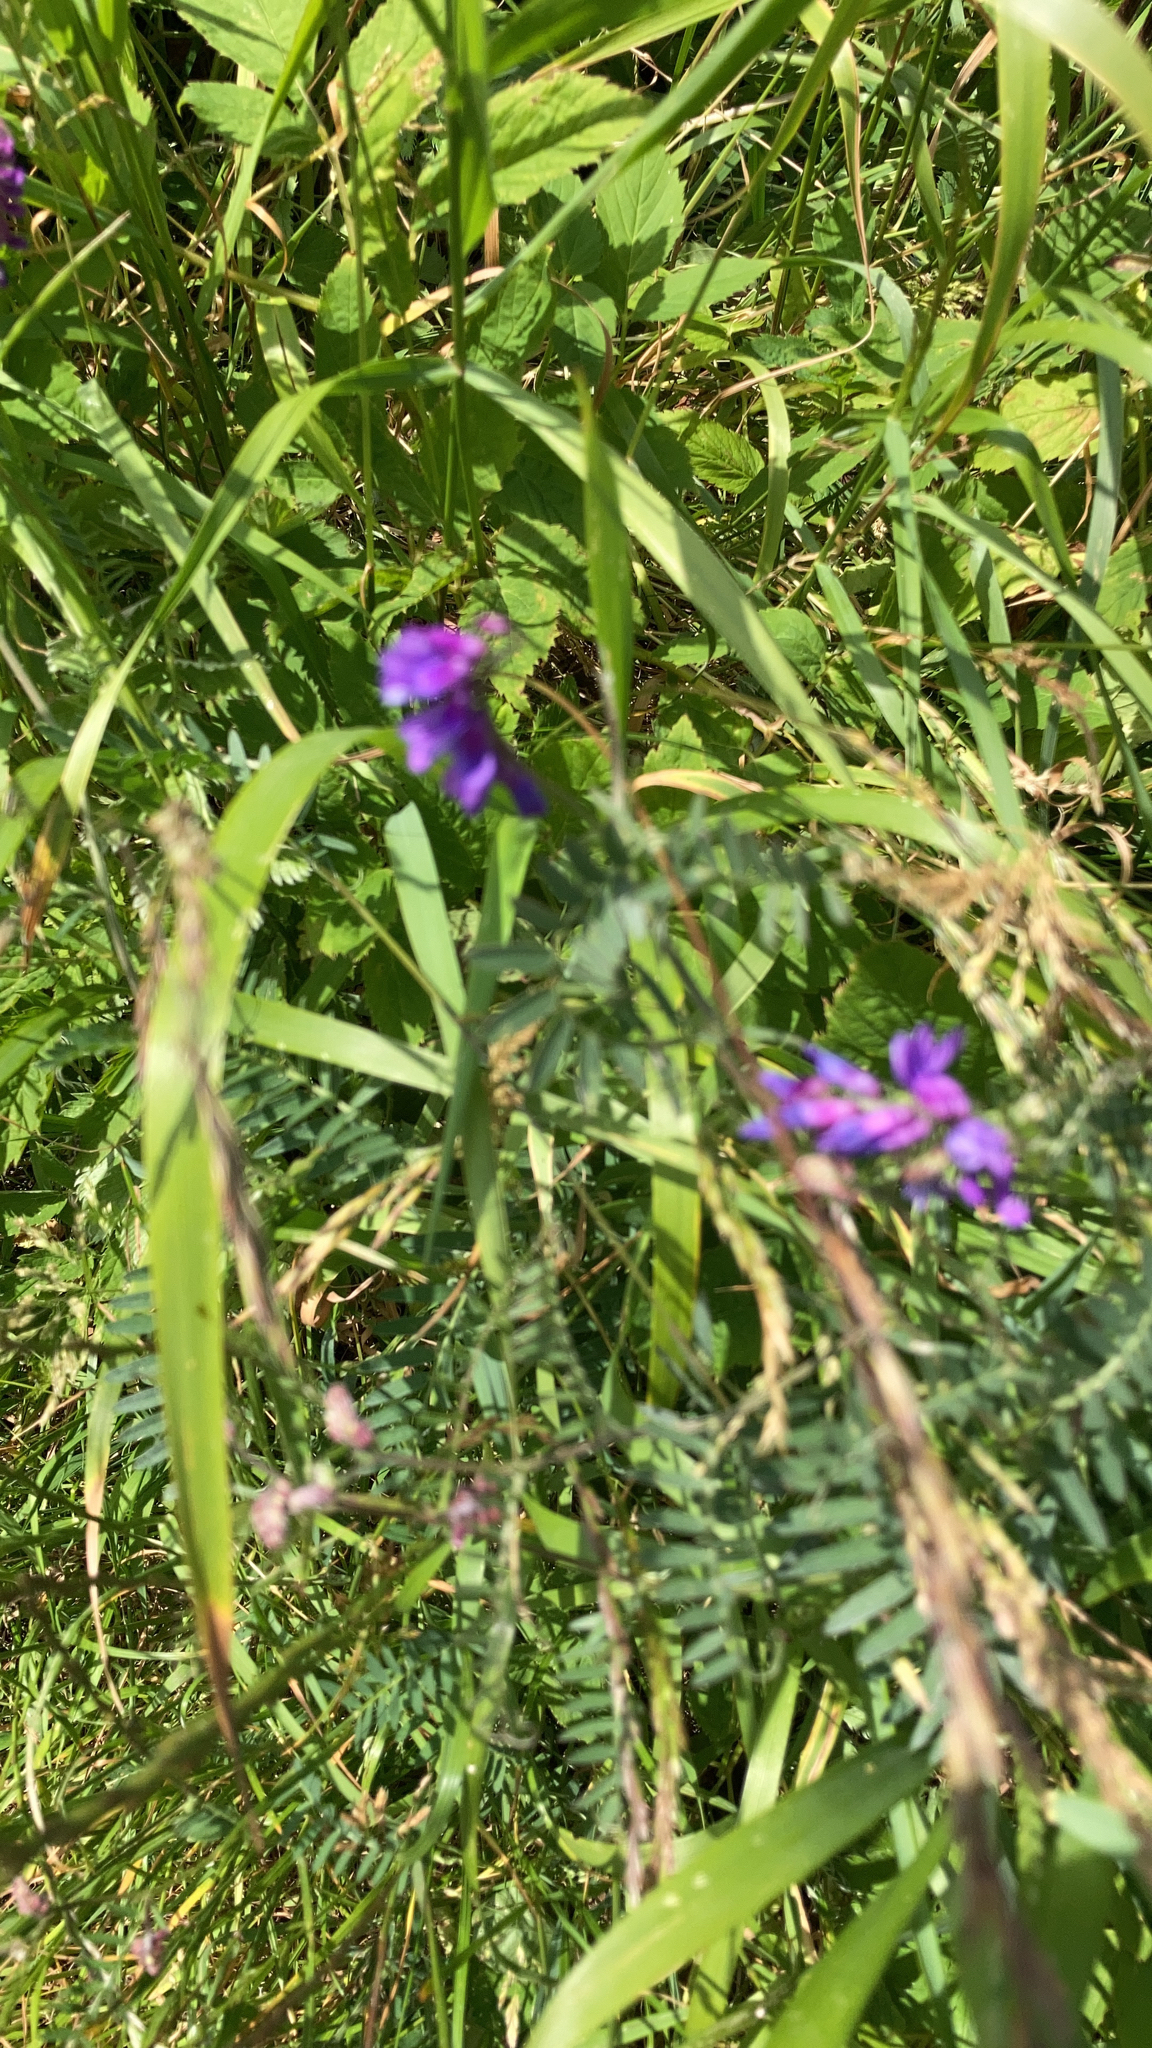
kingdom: Plantae
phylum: Tracheophyta
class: Magnoliopsida
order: Fabales
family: Fabaceae
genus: Vicia
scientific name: Vicia cracca
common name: Bird vetch
